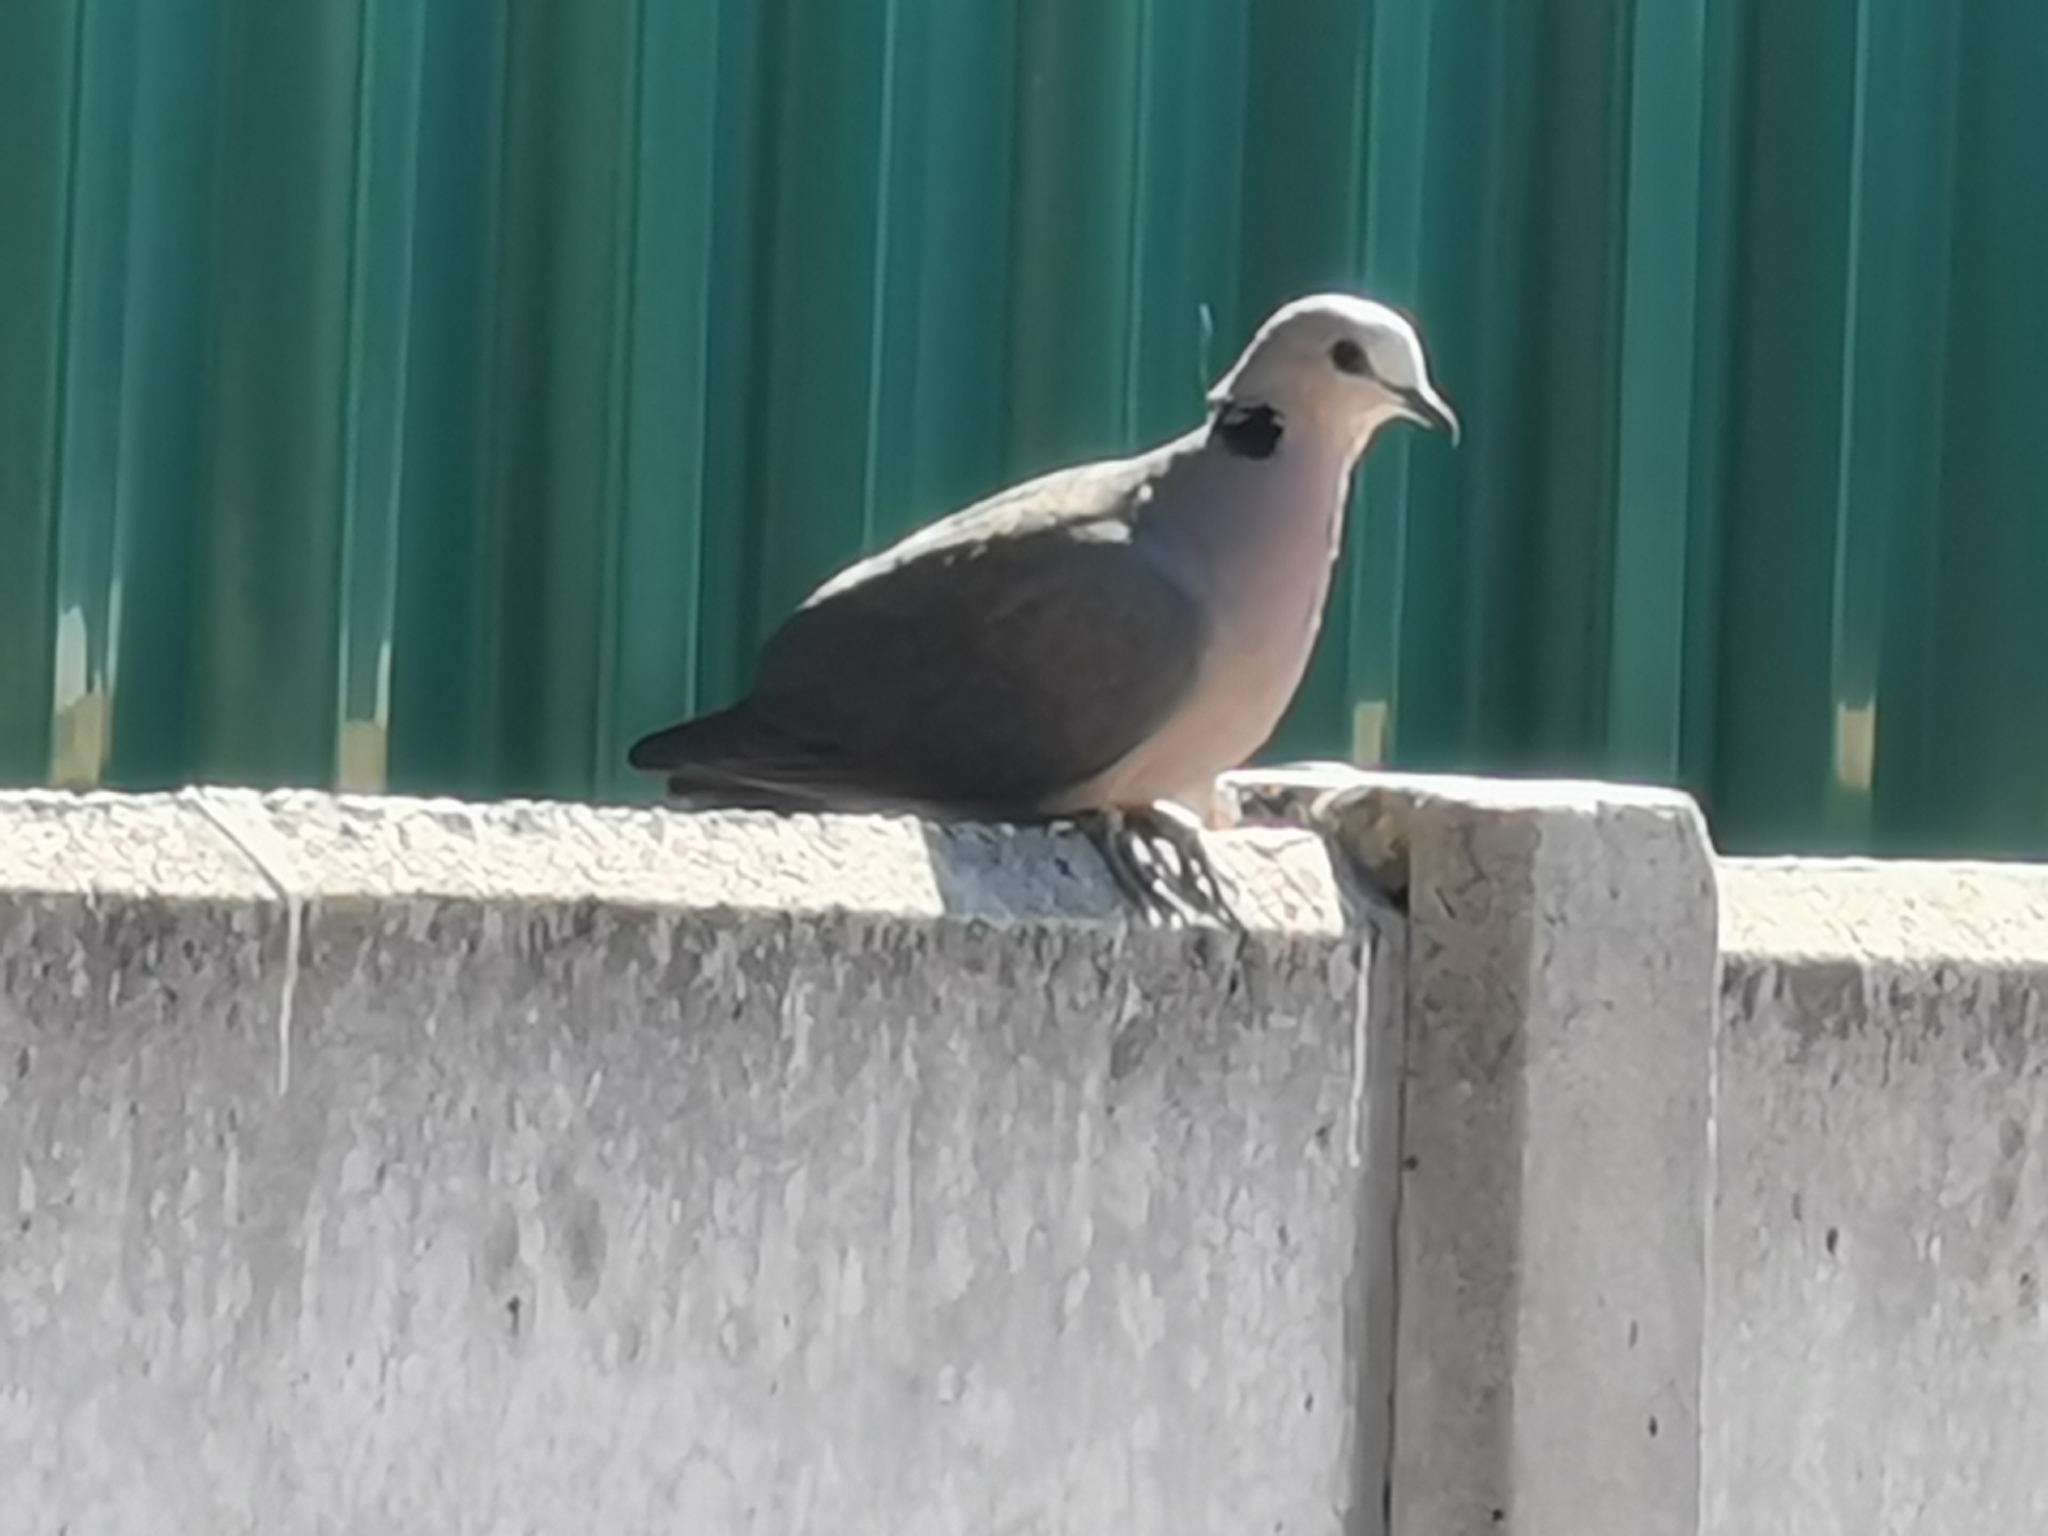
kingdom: Animalia
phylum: Chordata
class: Aves
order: Columbiformes
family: Columbidae
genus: Streptopelia
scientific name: Streptopelia semitorquata
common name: Red-eyed dove
